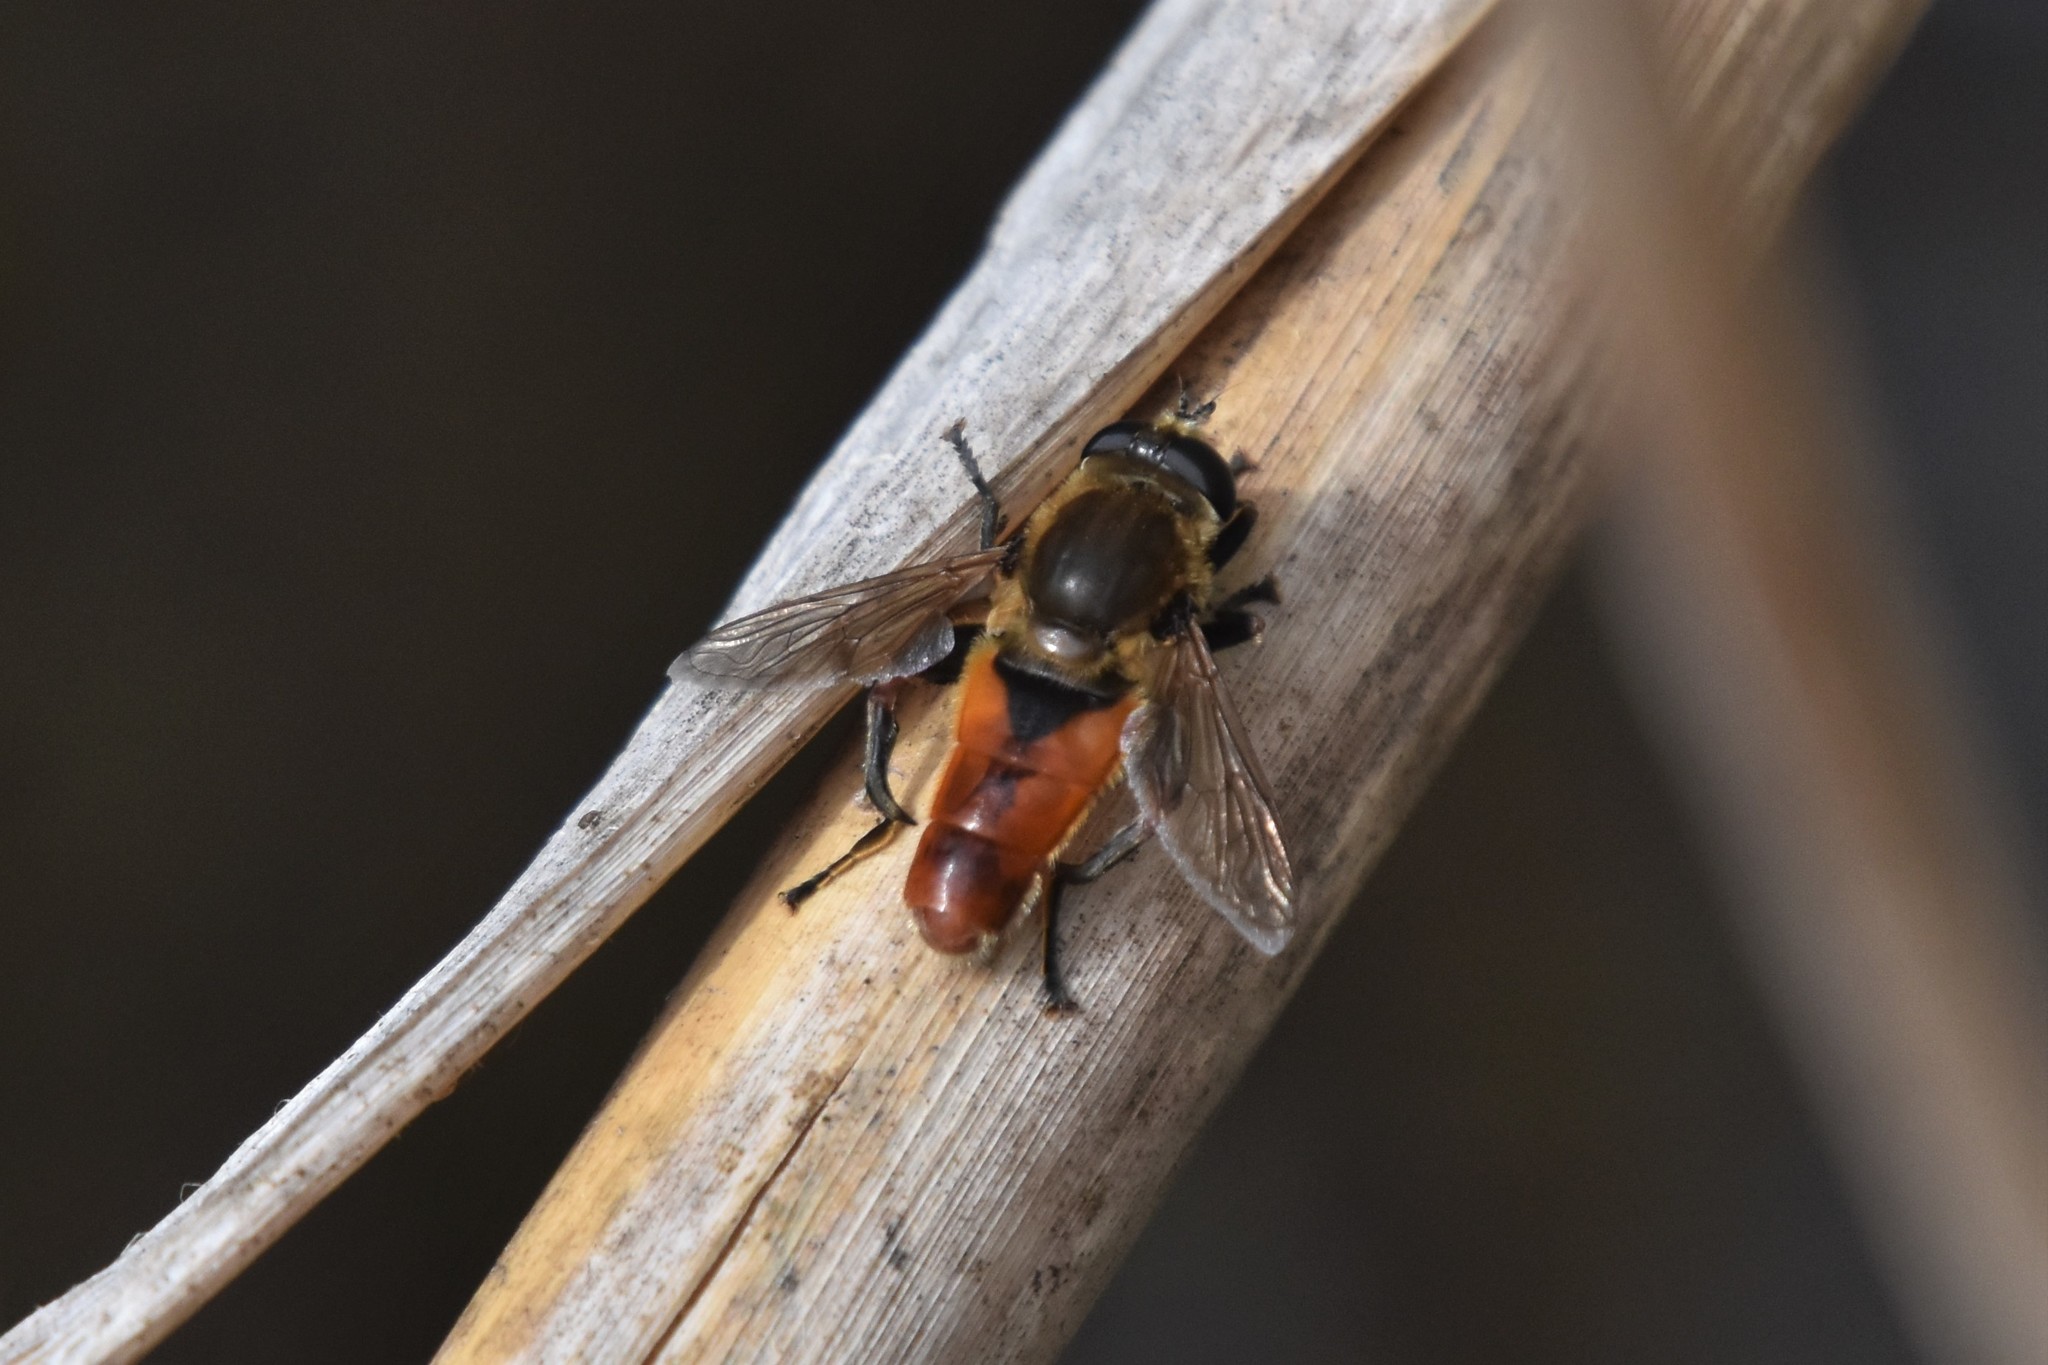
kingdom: Animalia
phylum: Arthropoda
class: Insecta
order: Diptera
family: Syrphidae
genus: Polydontomyia
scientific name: Polydontomyia curvipes
